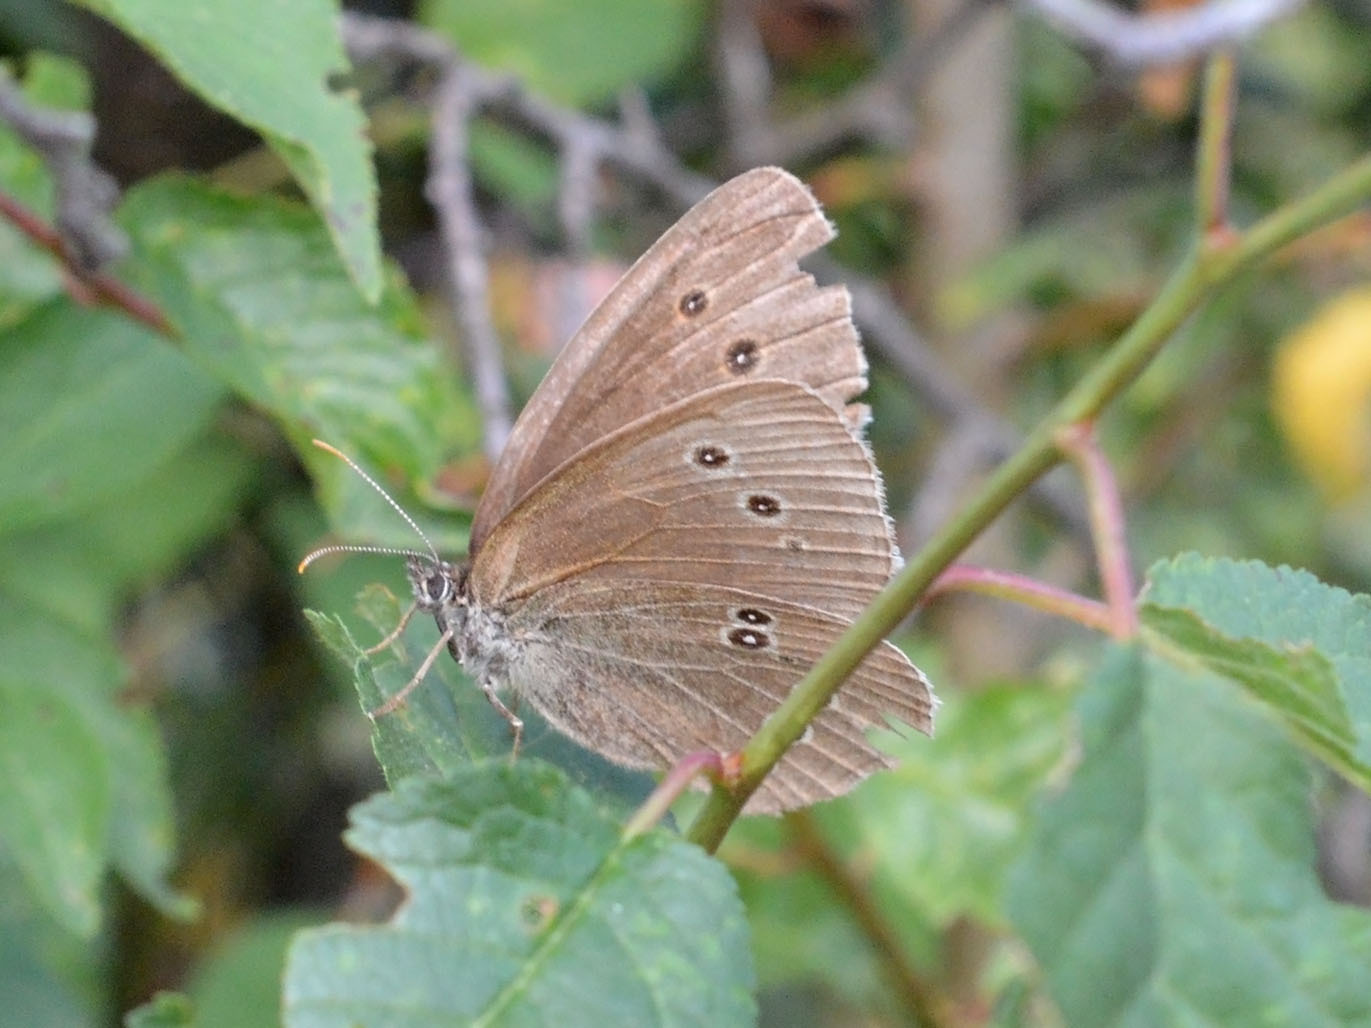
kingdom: Animalia
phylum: Arthropoda
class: Insecta
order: Lepidoptera
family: Nymphalidae
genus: Aphantopus
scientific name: Aphantopus hyperantus
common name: Ringlet
